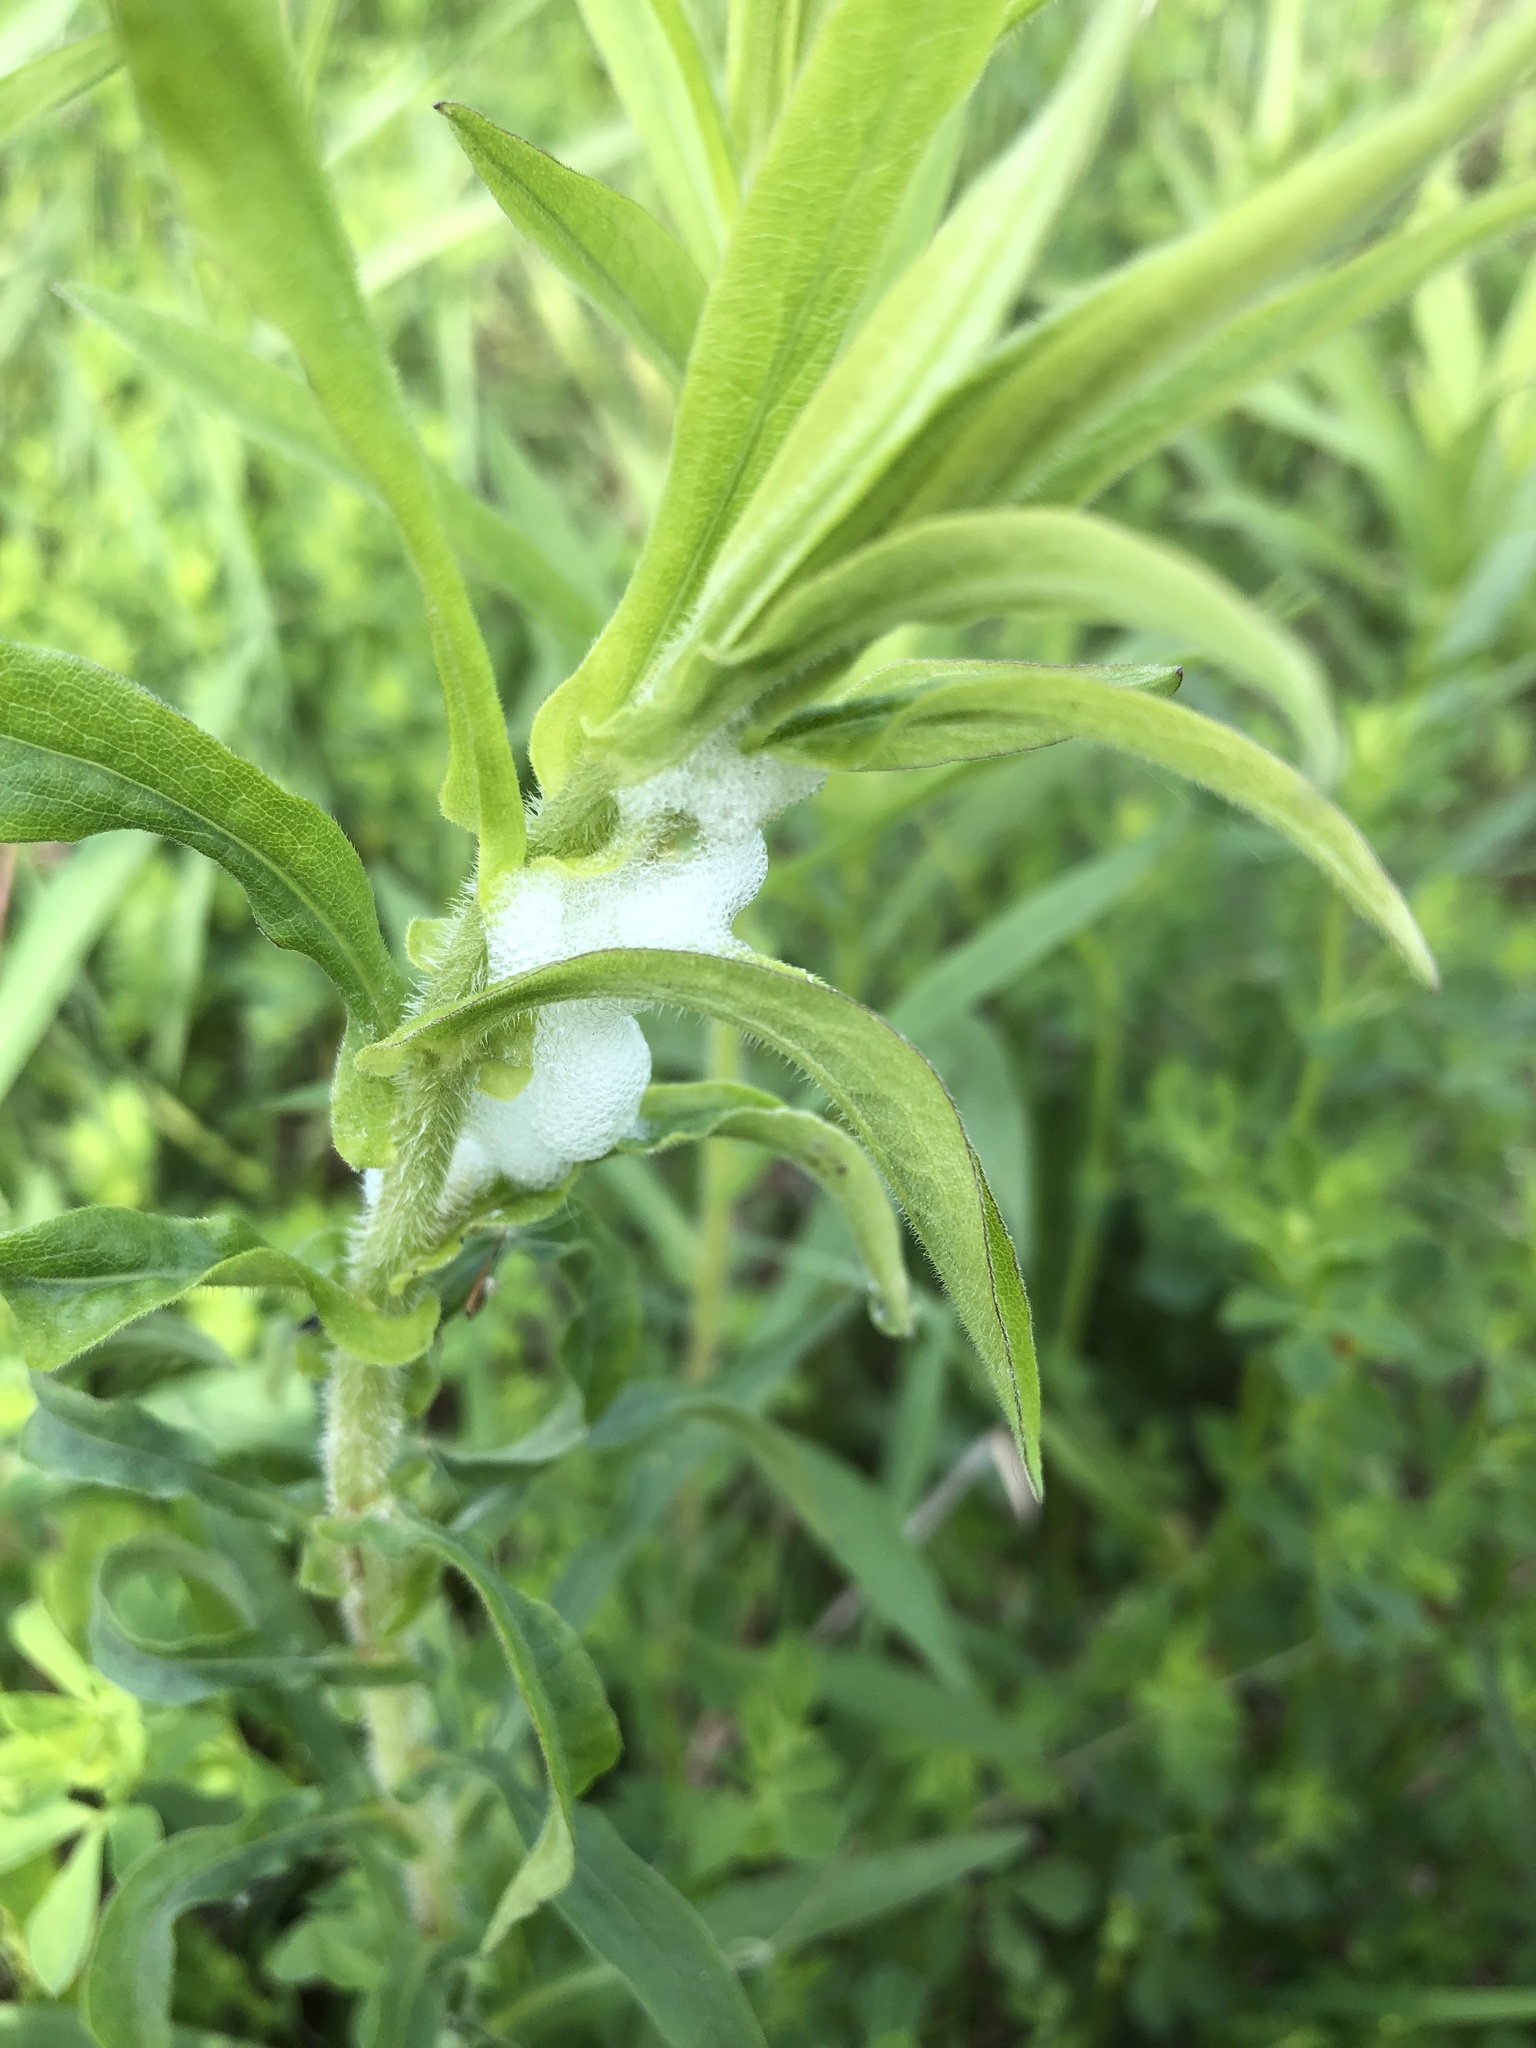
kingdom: Animalia
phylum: Arthropoda
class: Insecta
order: Hemiptera
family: Aphrophoridae
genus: Philaenus
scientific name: Philaenus spumarius
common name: Meadow spittlebug
